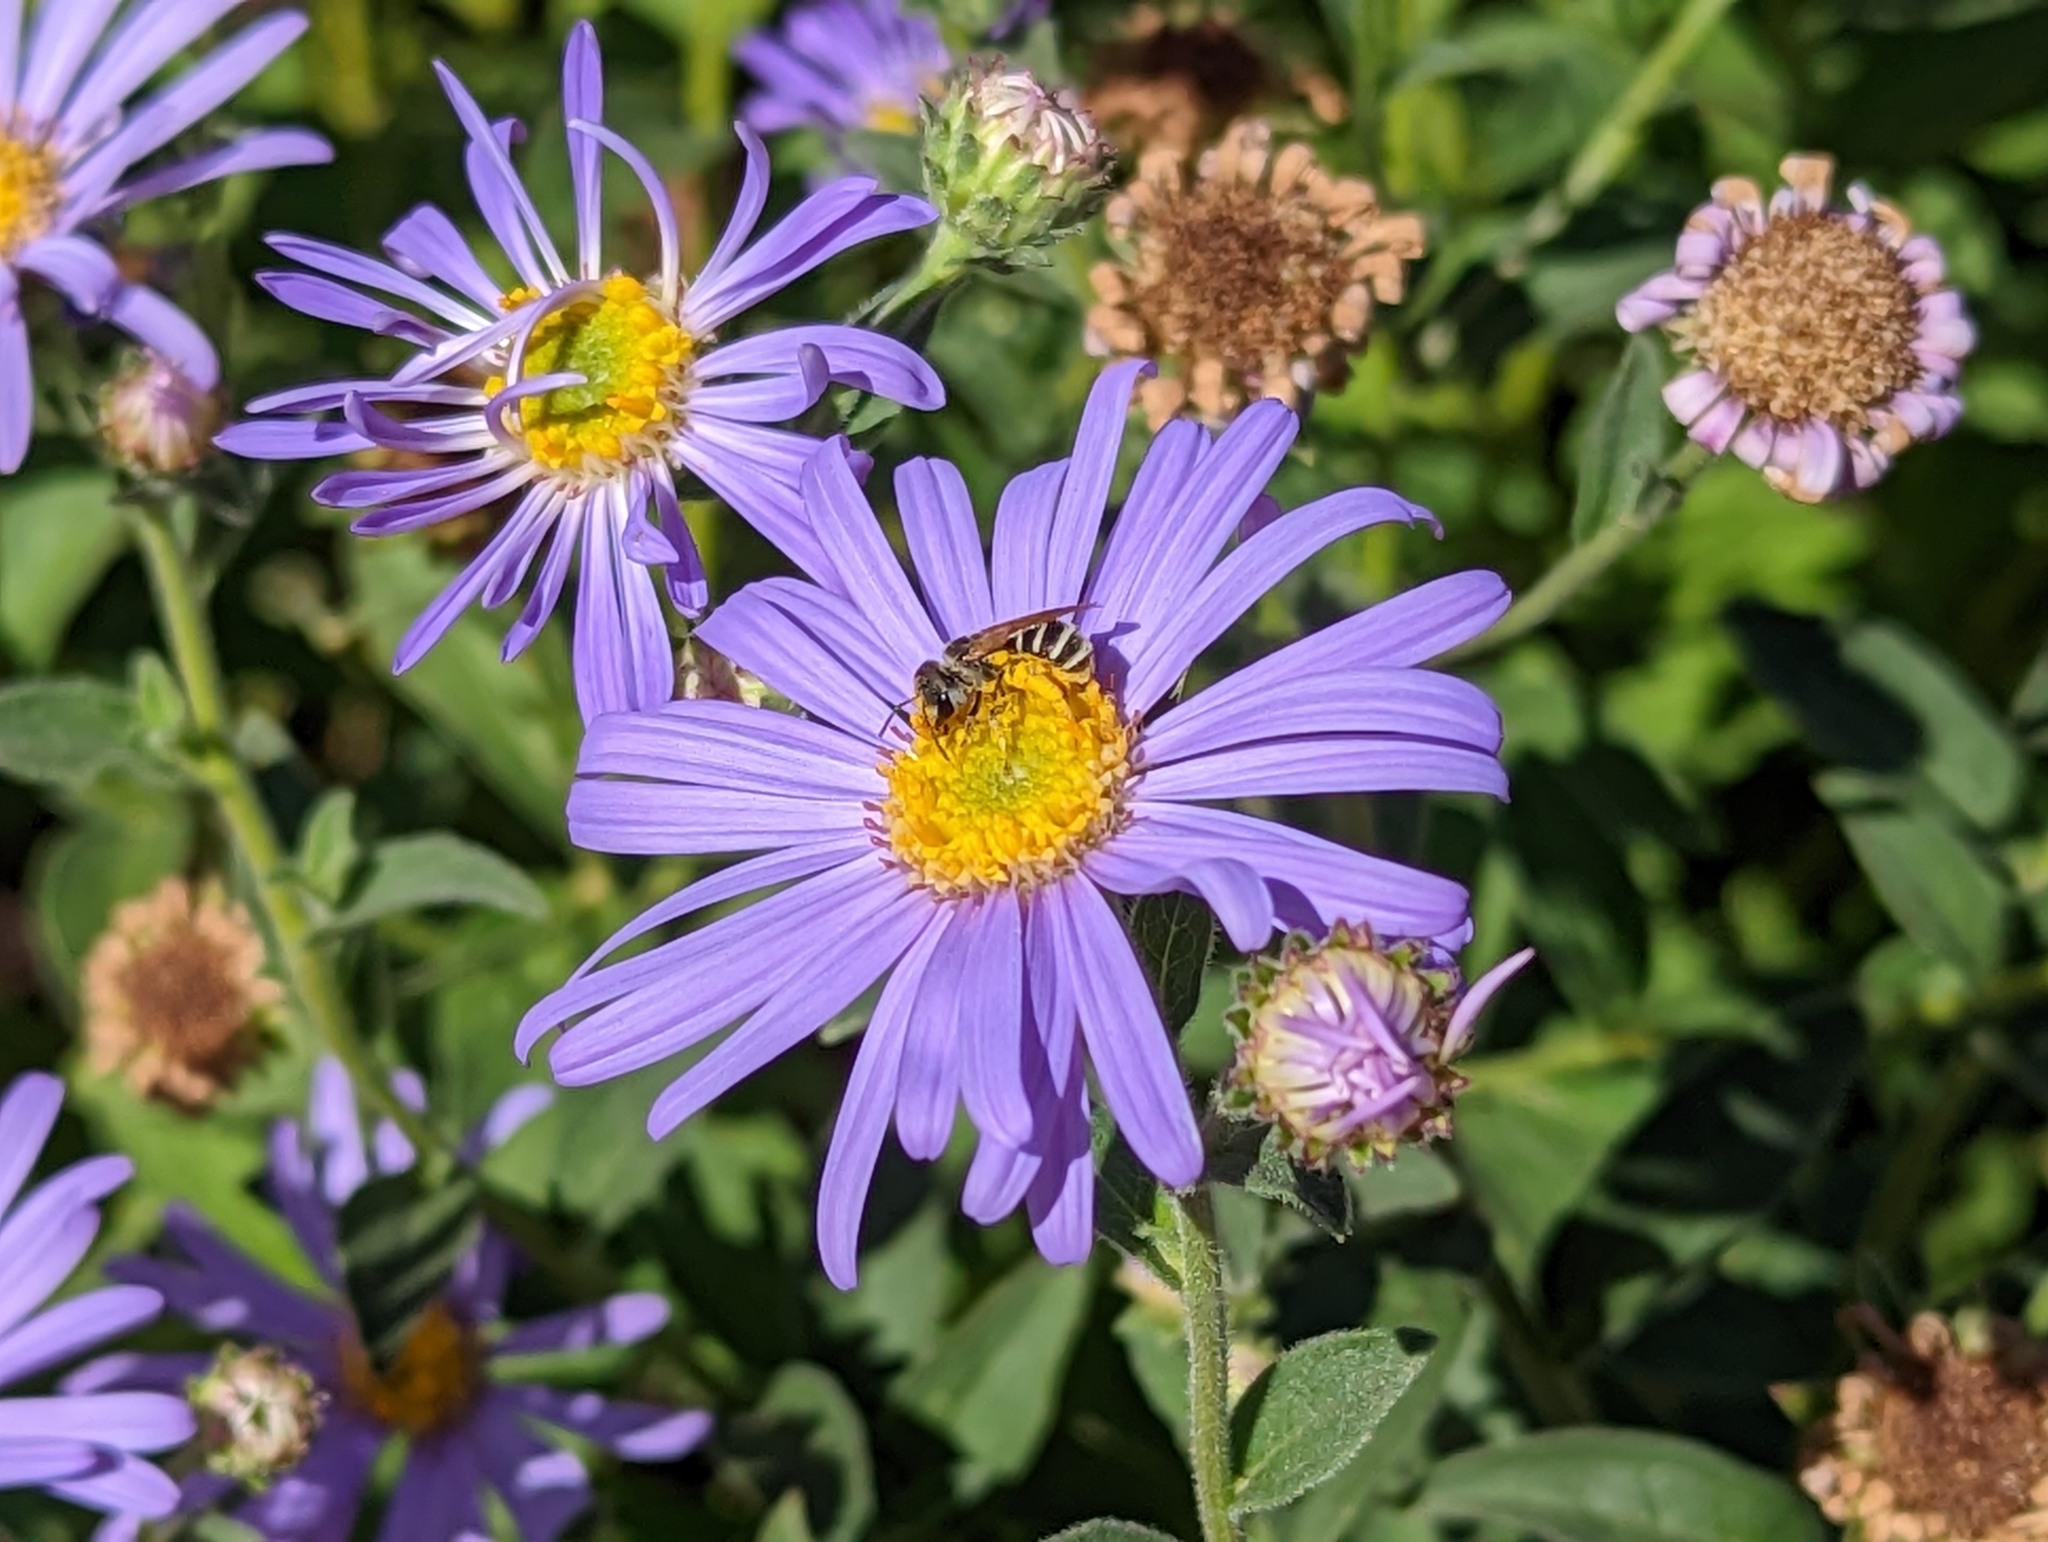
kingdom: Animalia
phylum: Arthropoda
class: Insecta
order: Hymenoptera
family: Halictidae
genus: Halictus
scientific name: Halictus ligatus
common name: Ligated furrow bee
